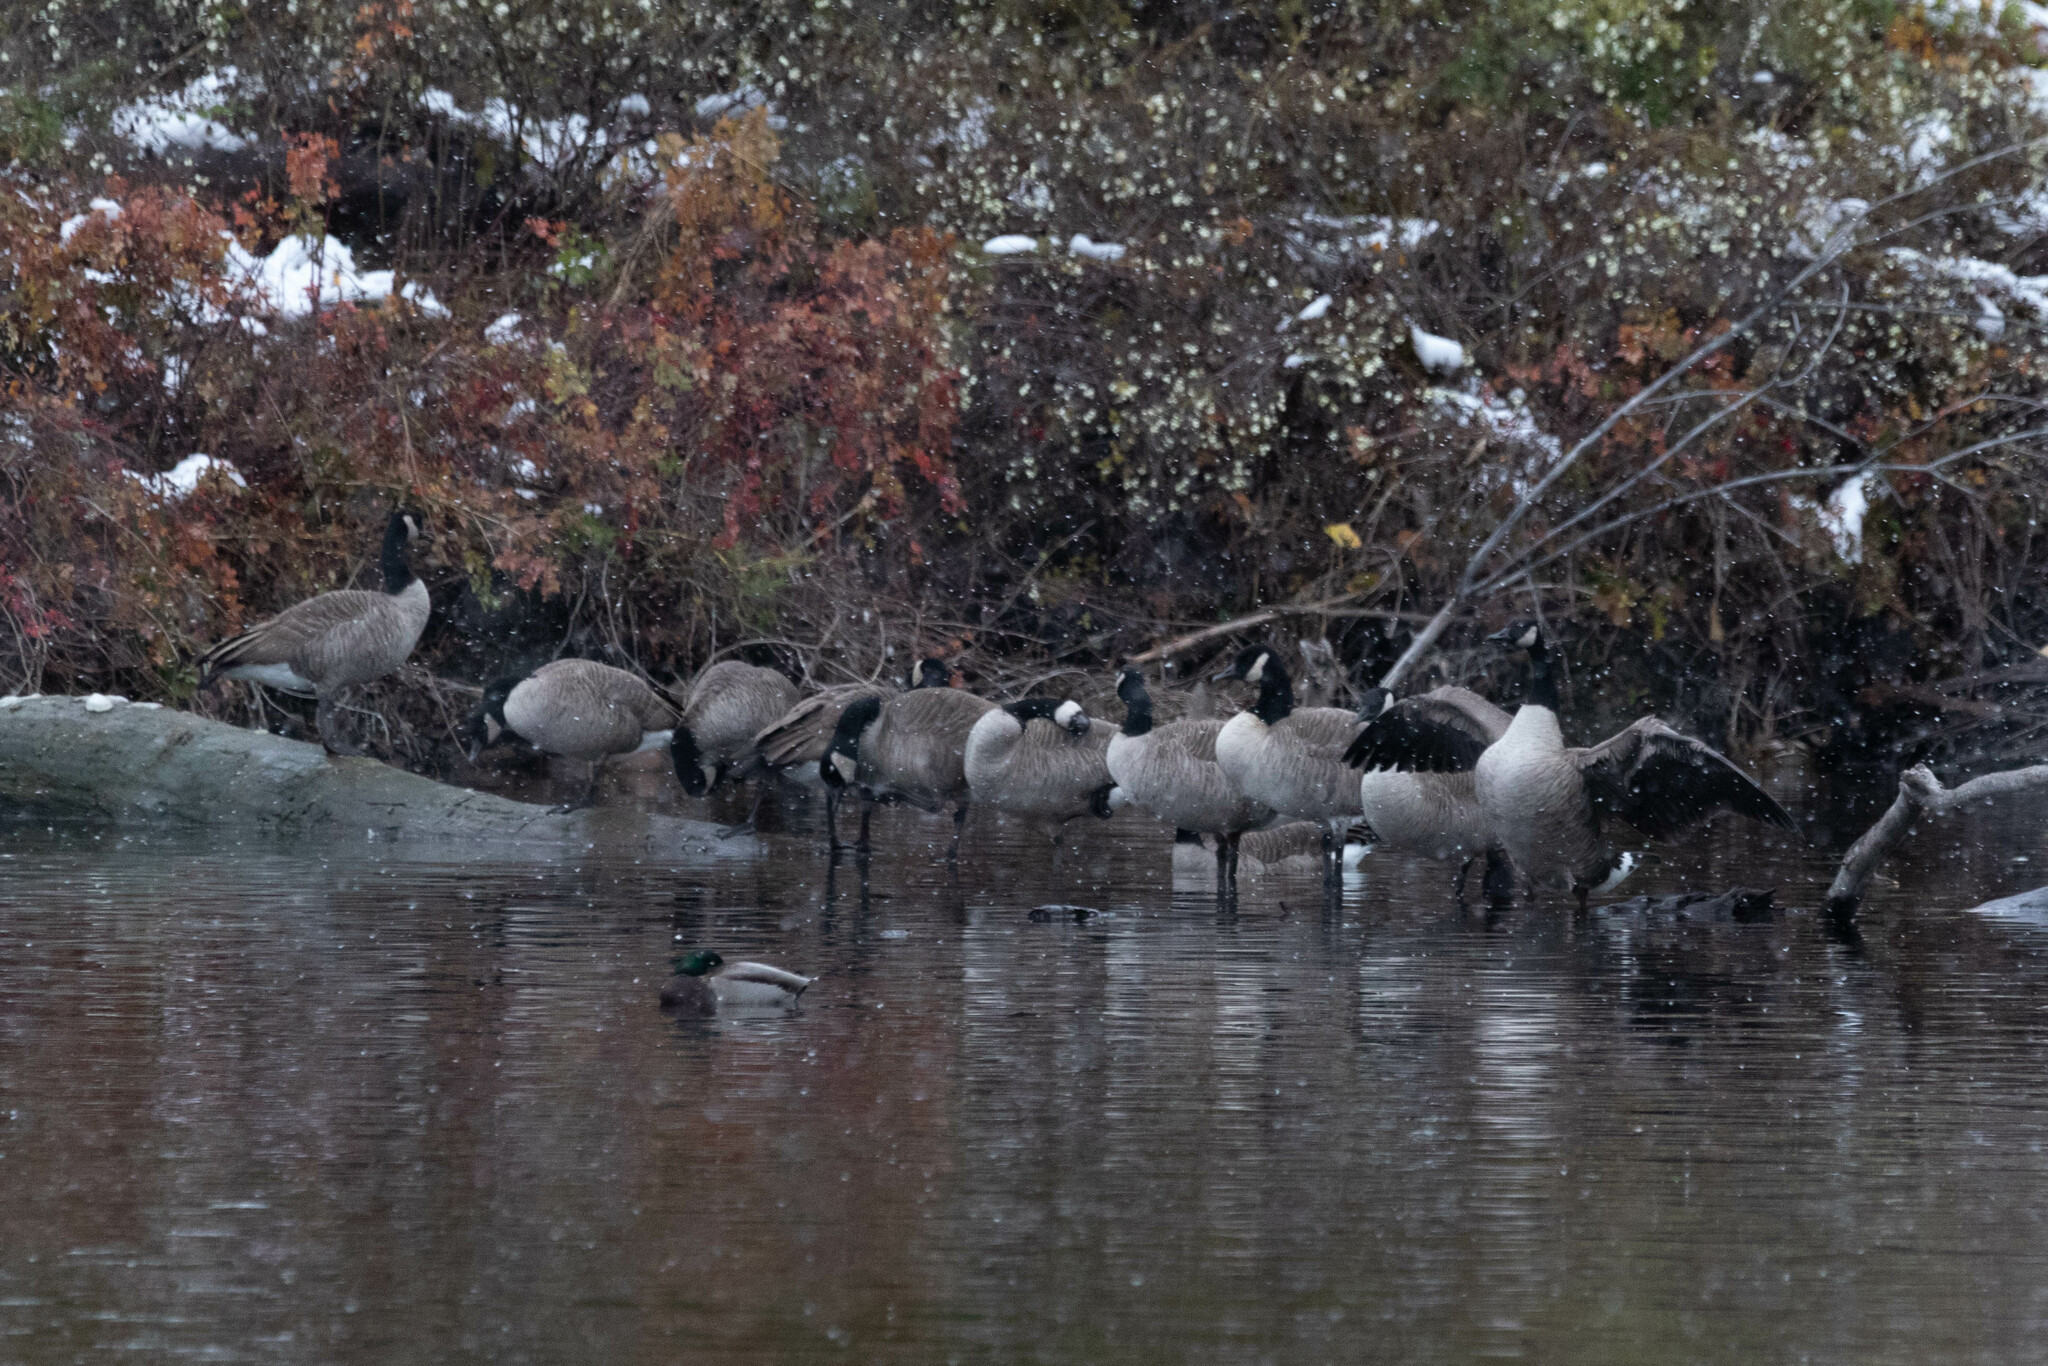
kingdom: Animalia
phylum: Chordata
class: Aves
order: Anseriformes
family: Anatidae
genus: Branta
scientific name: Branta canadensis
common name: Canada goose
